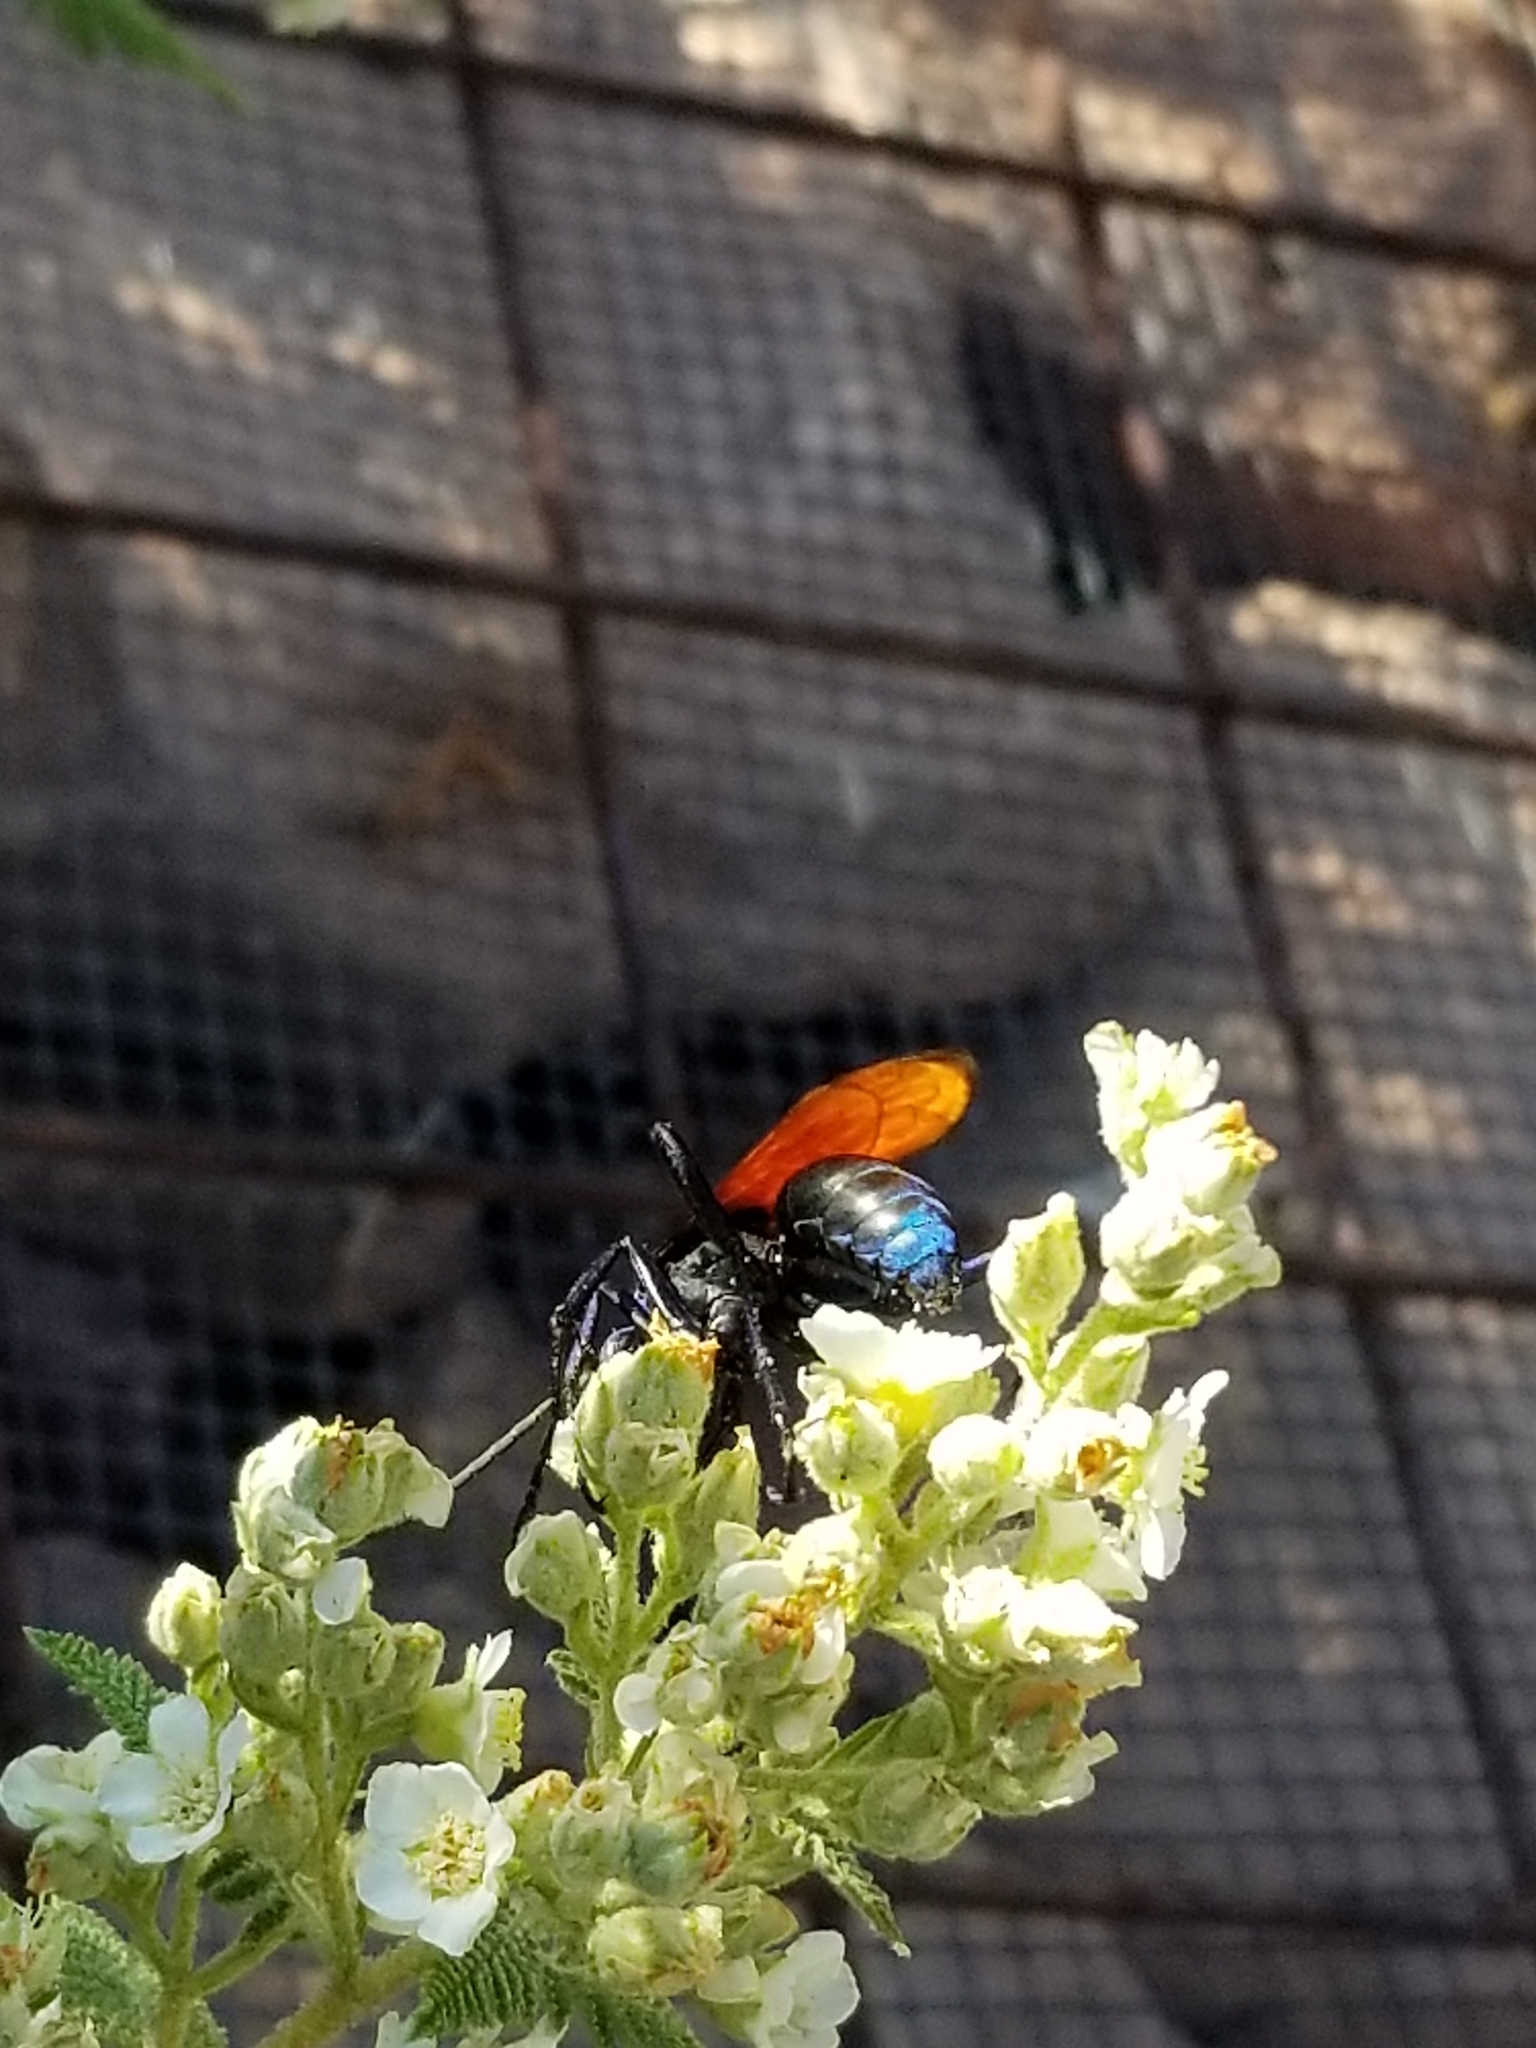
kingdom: Animalia
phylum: Arthropoda
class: Insecta
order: Hymenoptera
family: Pompilidae
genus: Pepsis
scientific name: Pepsis thisbe
